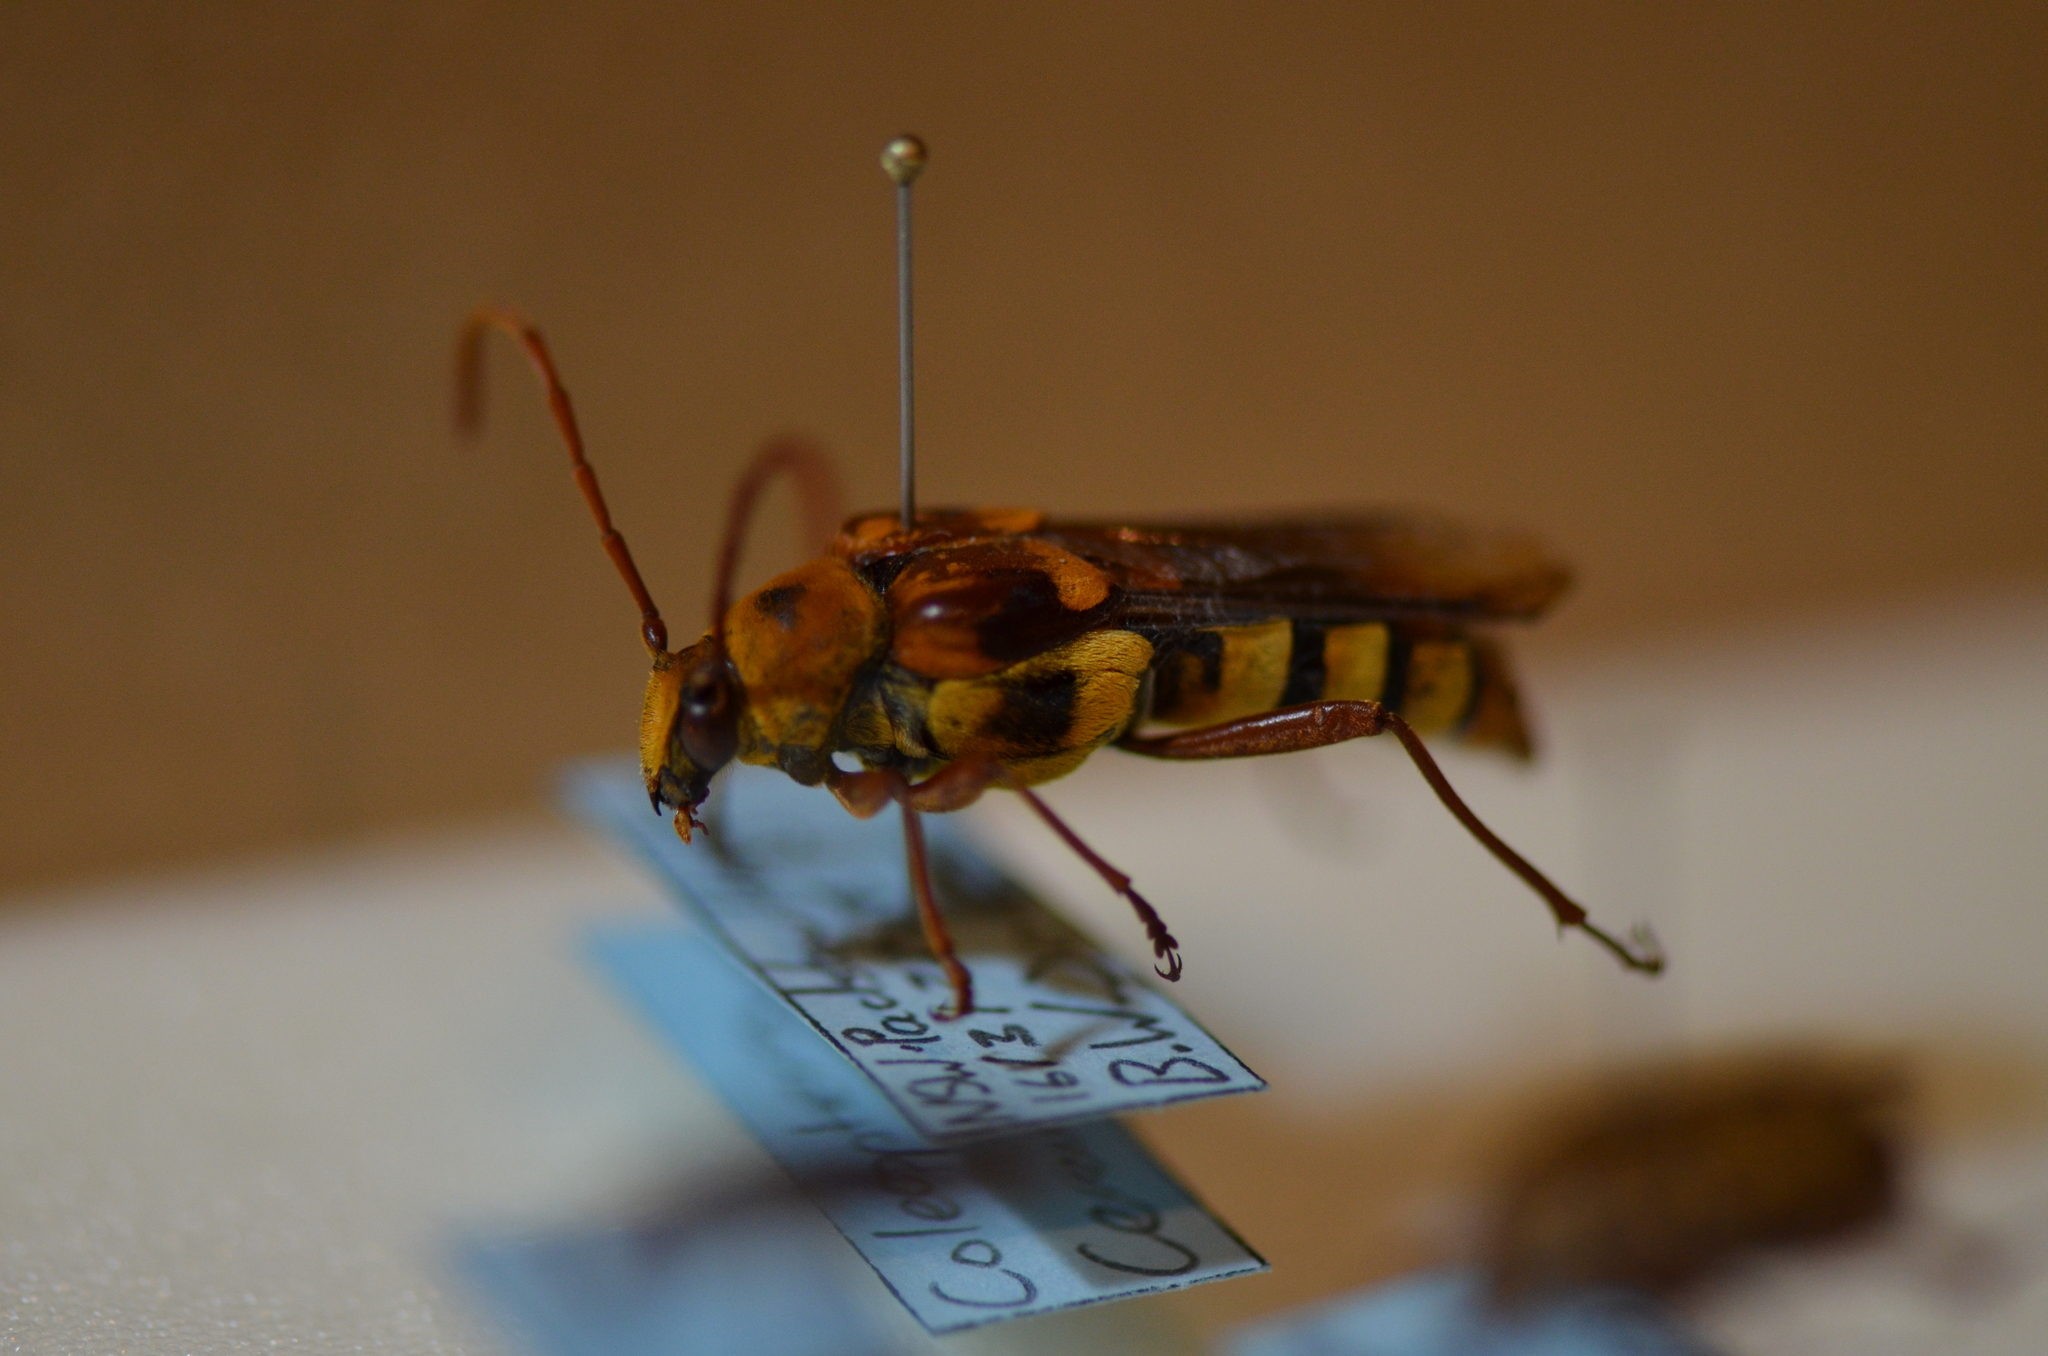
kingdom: Animalia
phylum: Arthropoda
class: Insecta
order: Coleoptera
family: Cerambycidae
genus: Hesthesis
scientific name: Hesthesis ferrugineus
